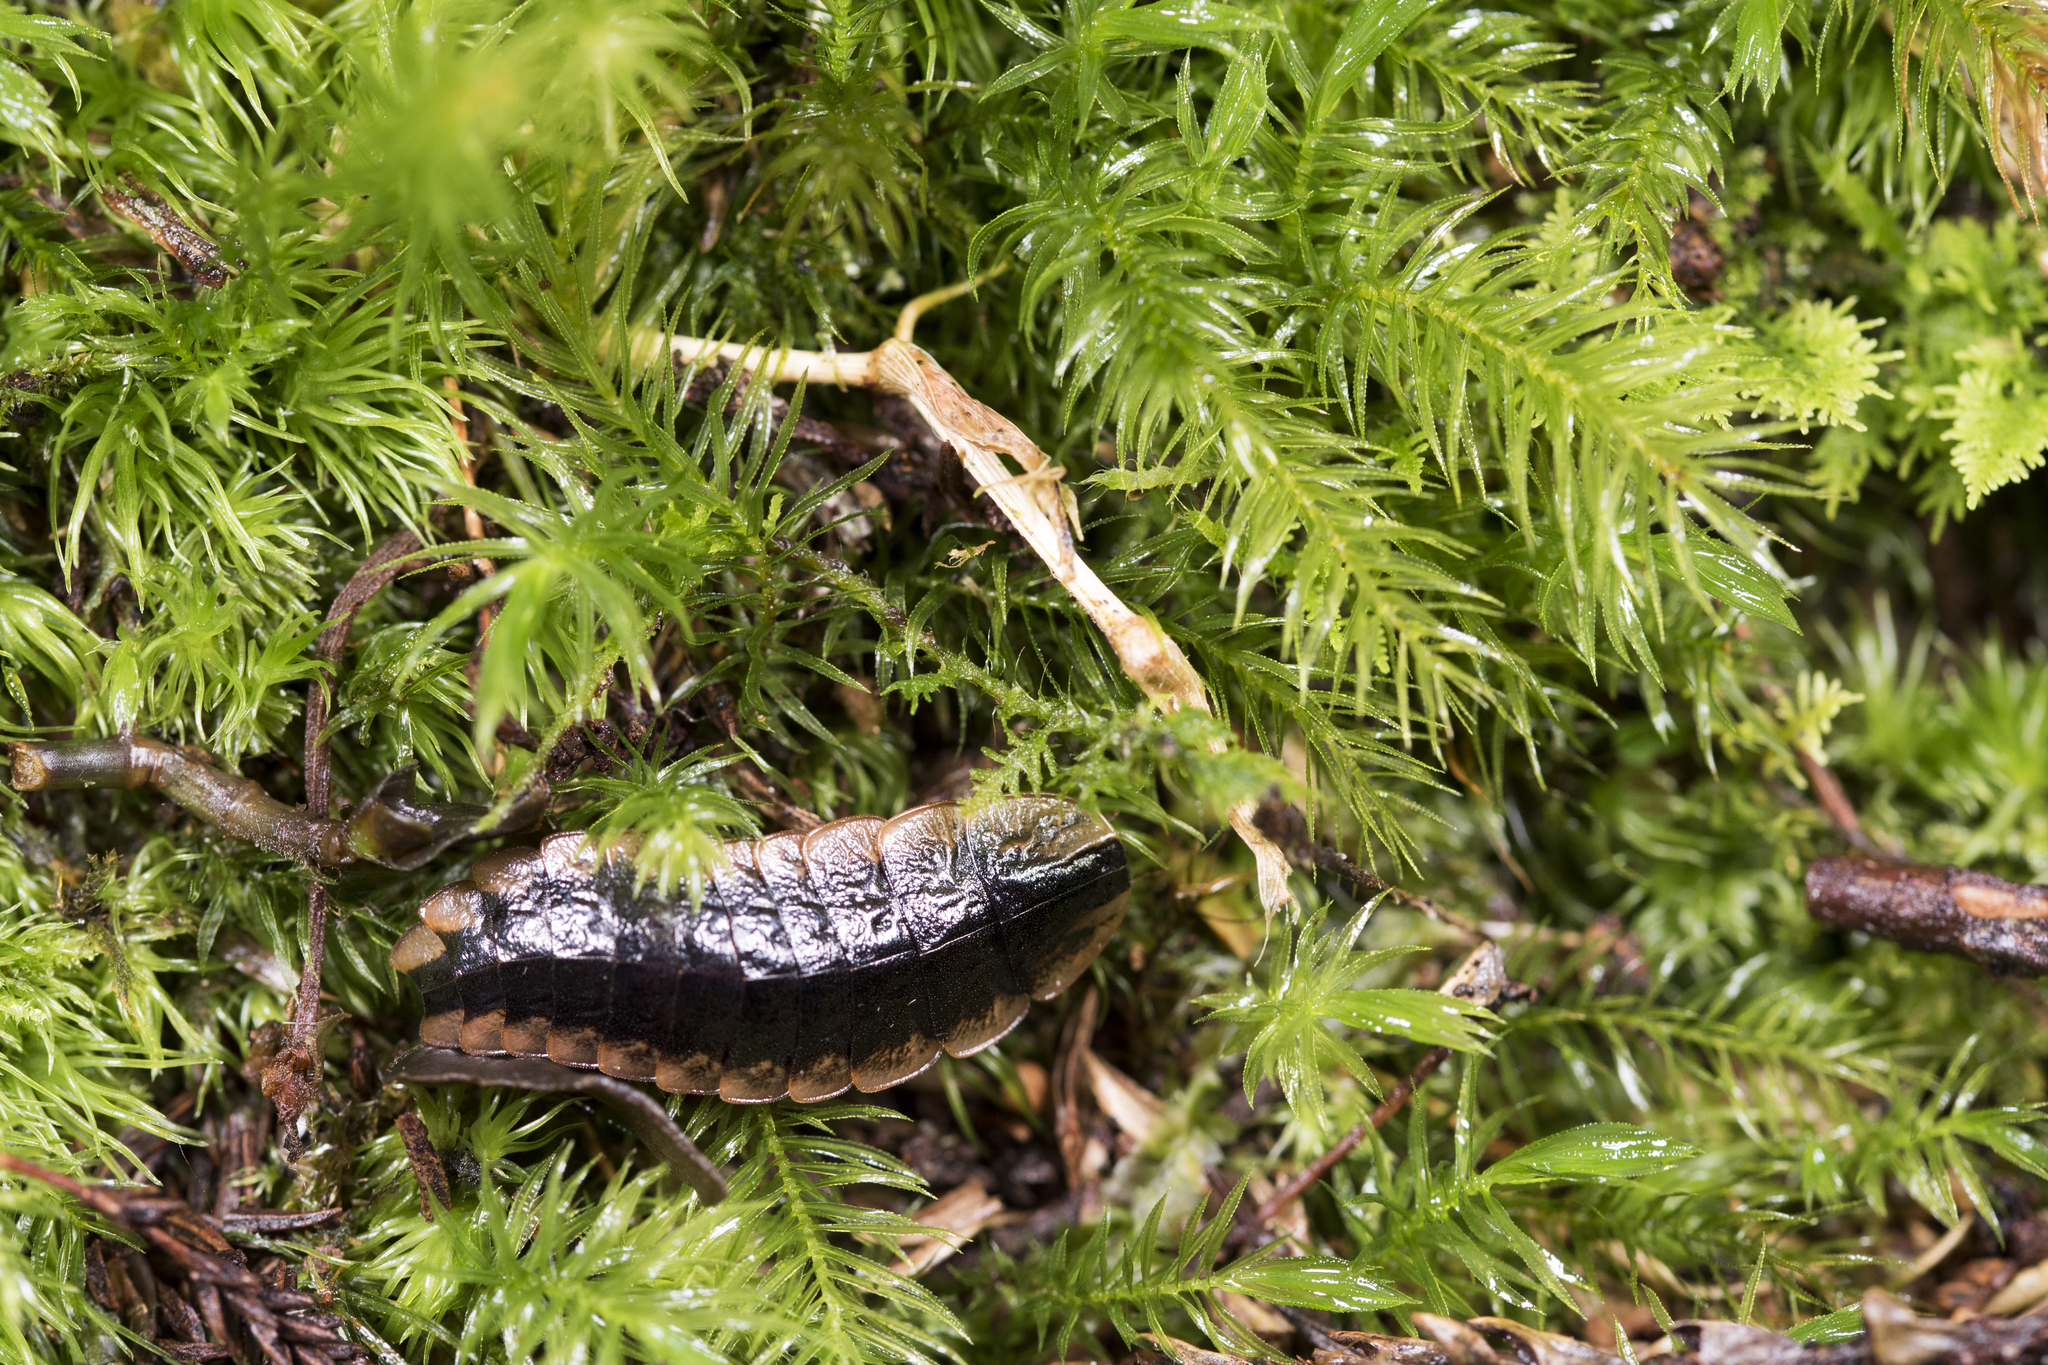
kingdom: Animalia
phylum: Arthropoda
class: Insecta
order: Coleoptera
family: Lampyridae
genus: Lamprigera
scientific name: Lamprigera yunnana
